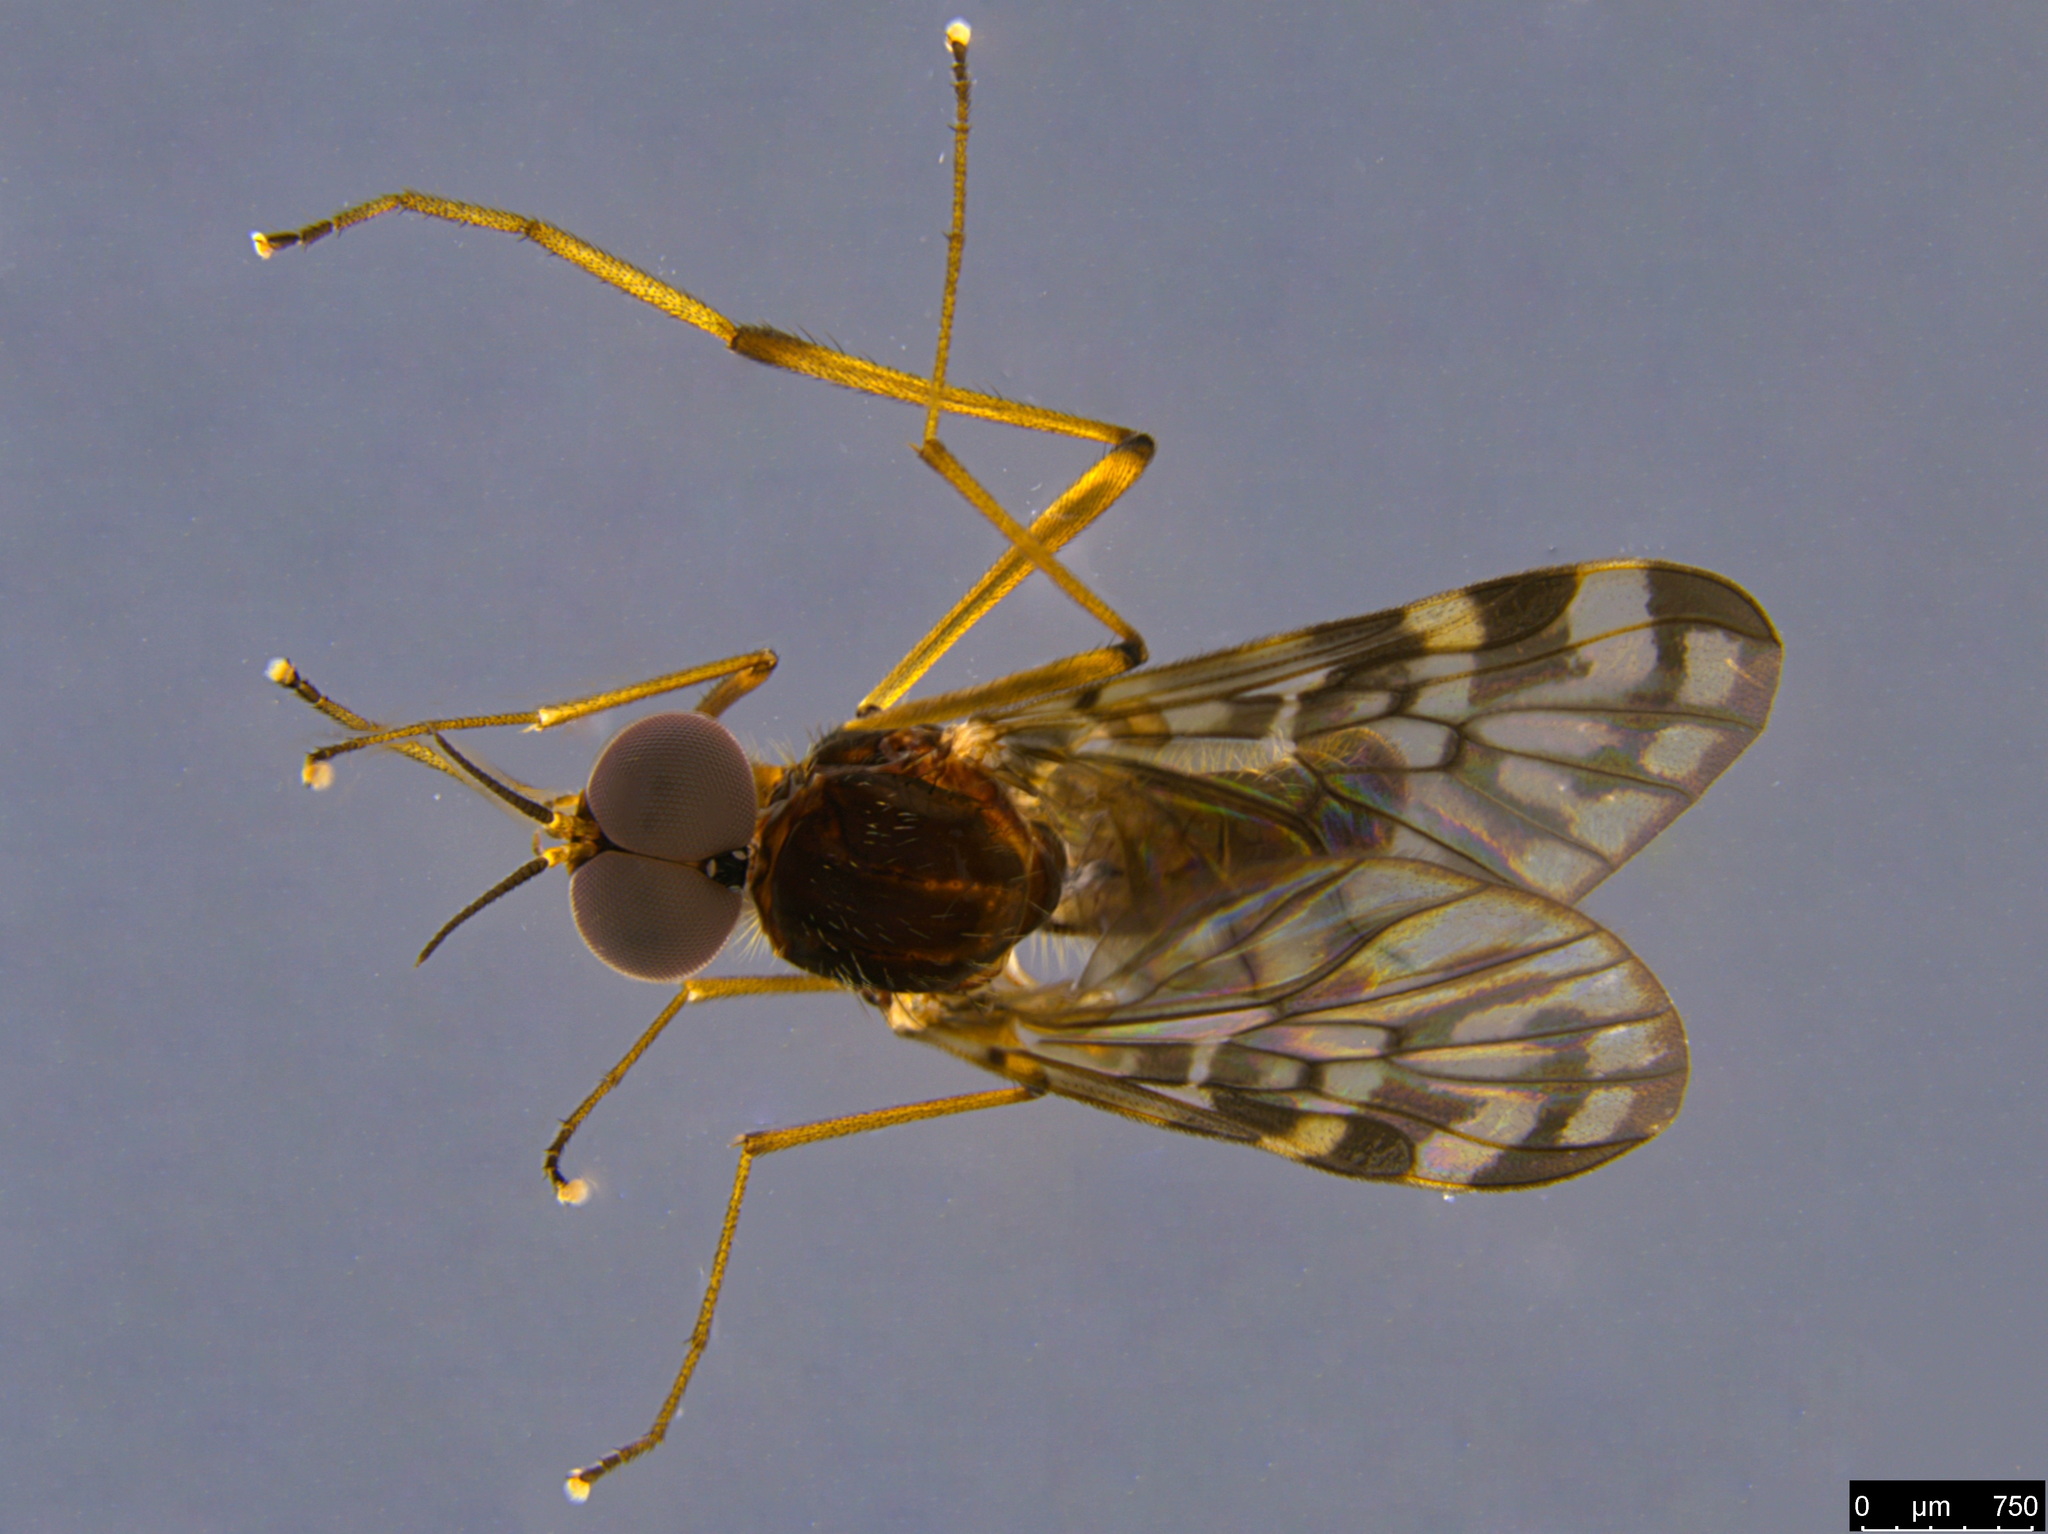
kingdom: Animalia
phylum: Arthropoda
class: Insecta
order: Diptera
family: Anisopodidae
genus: Sylvicola
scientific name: Sylvicola dubius
